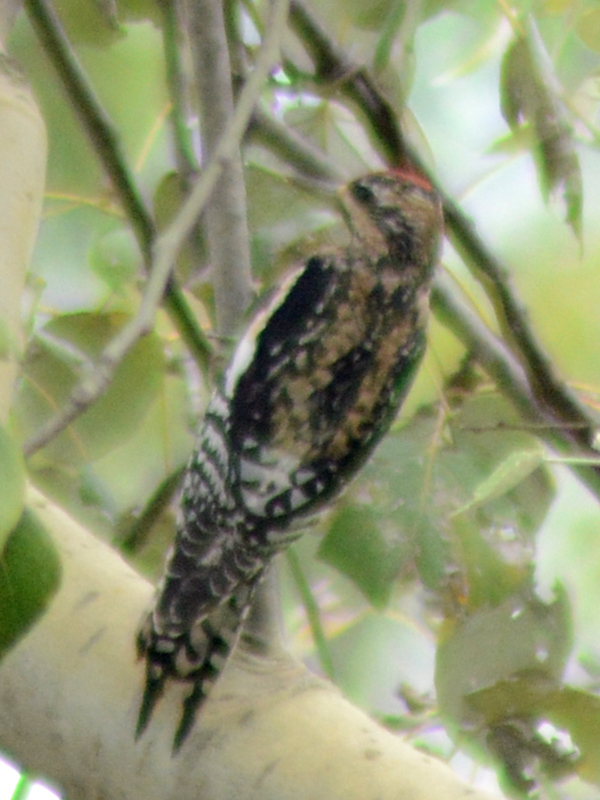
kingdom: Animalia
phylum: Chordata
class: Aves
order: Piciformes
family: Picidae
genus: Sphyrapicus
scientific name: Sphyrapicus varius
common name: Yellow-bellied sapsucker
